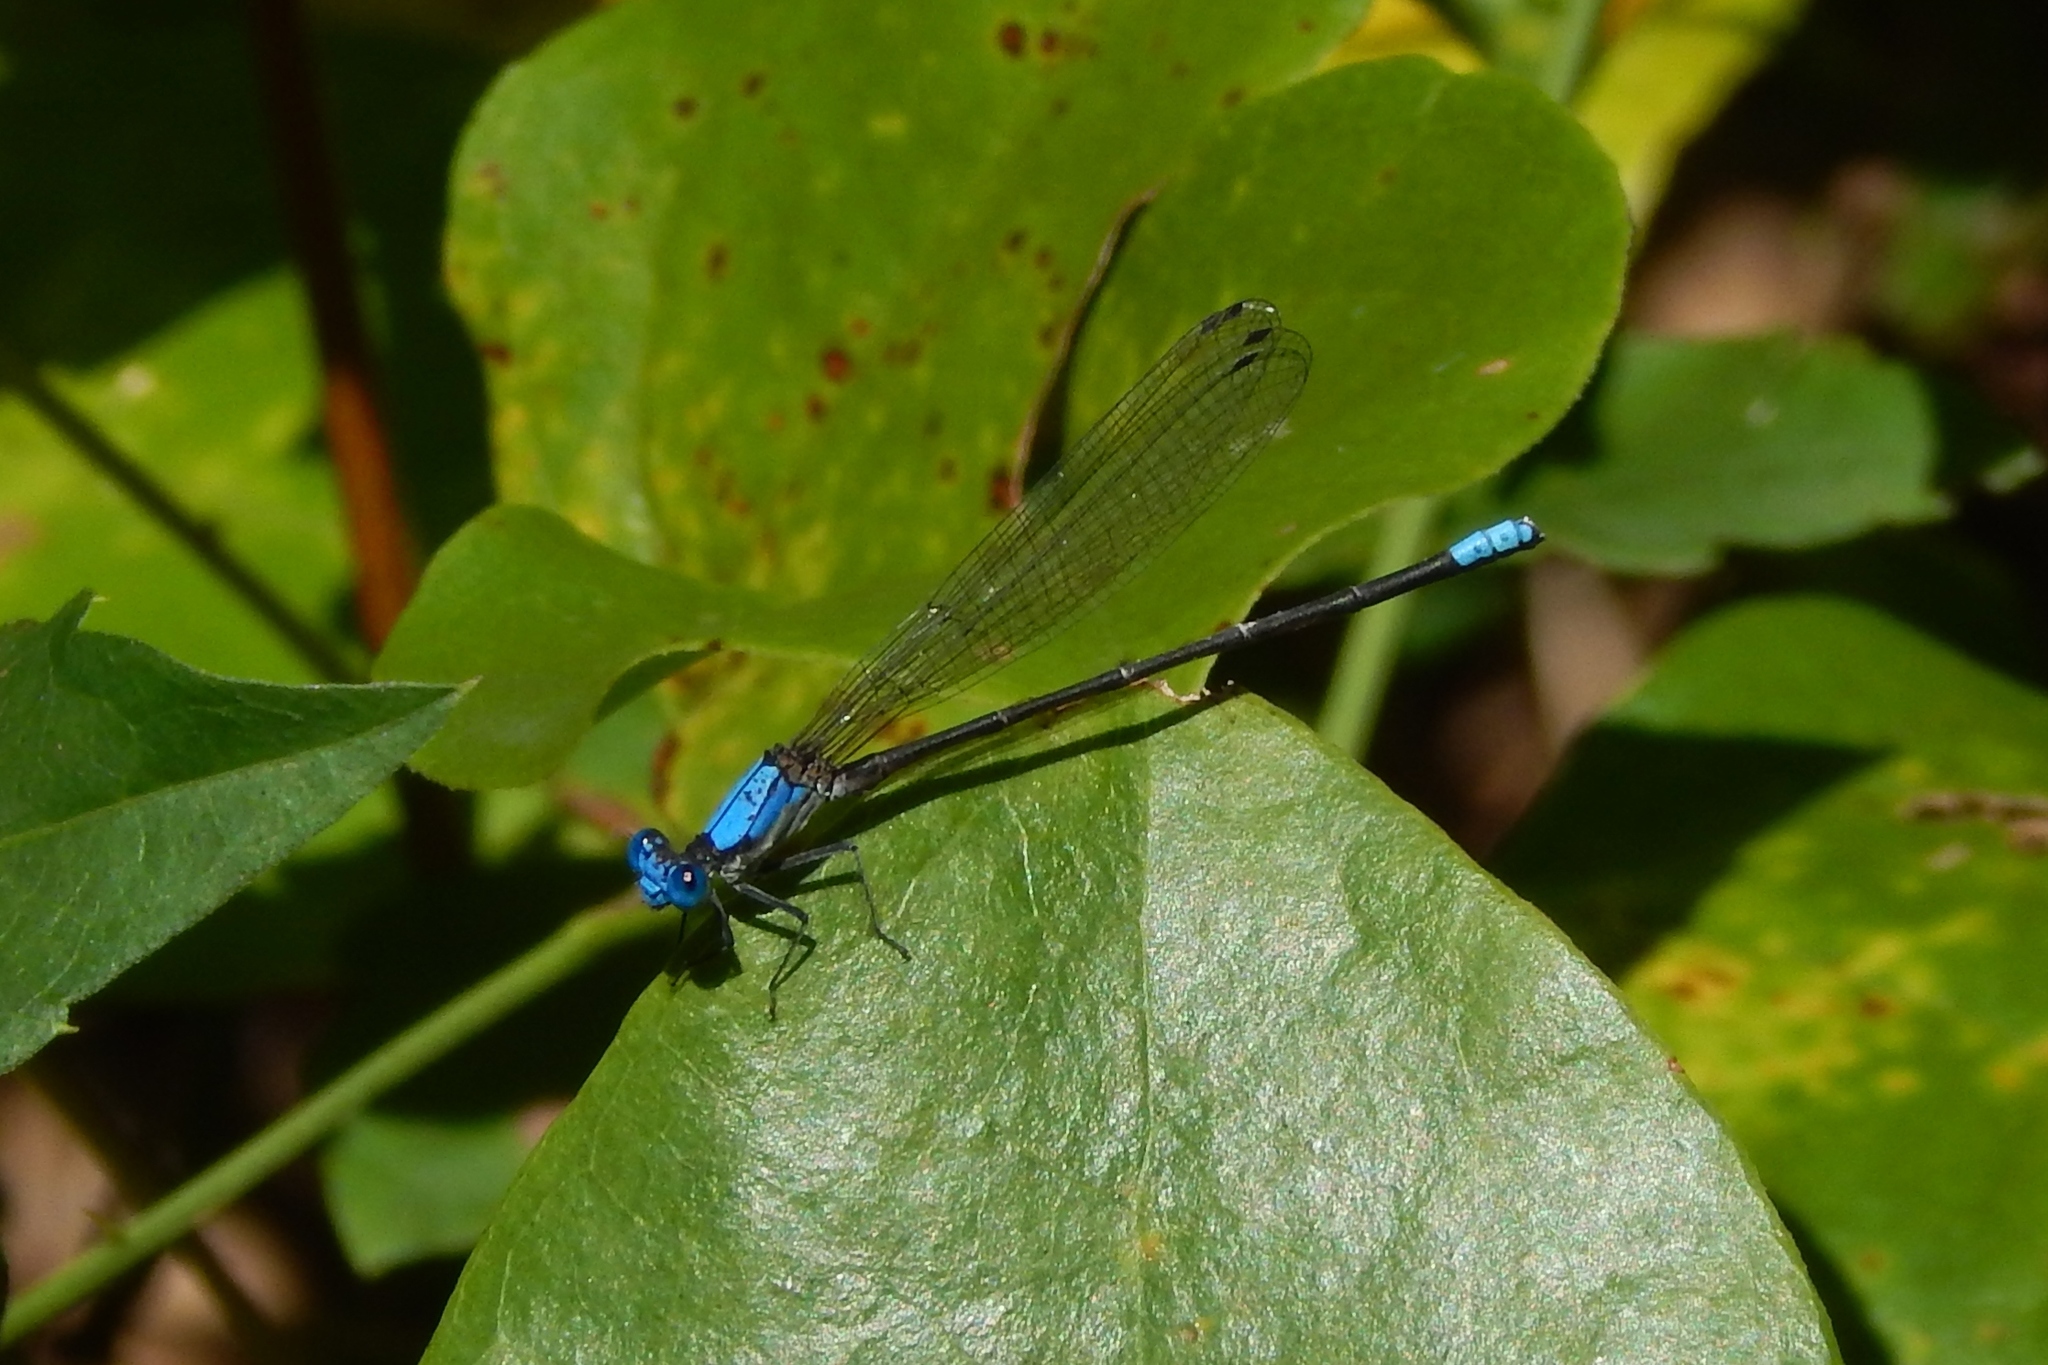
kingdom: Animalia
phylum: Arthropoda
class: Insecta
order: Odonata
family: Coenagrionidae
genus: Argia
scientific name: Argia apicalis
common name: Blue-fronted dancer
